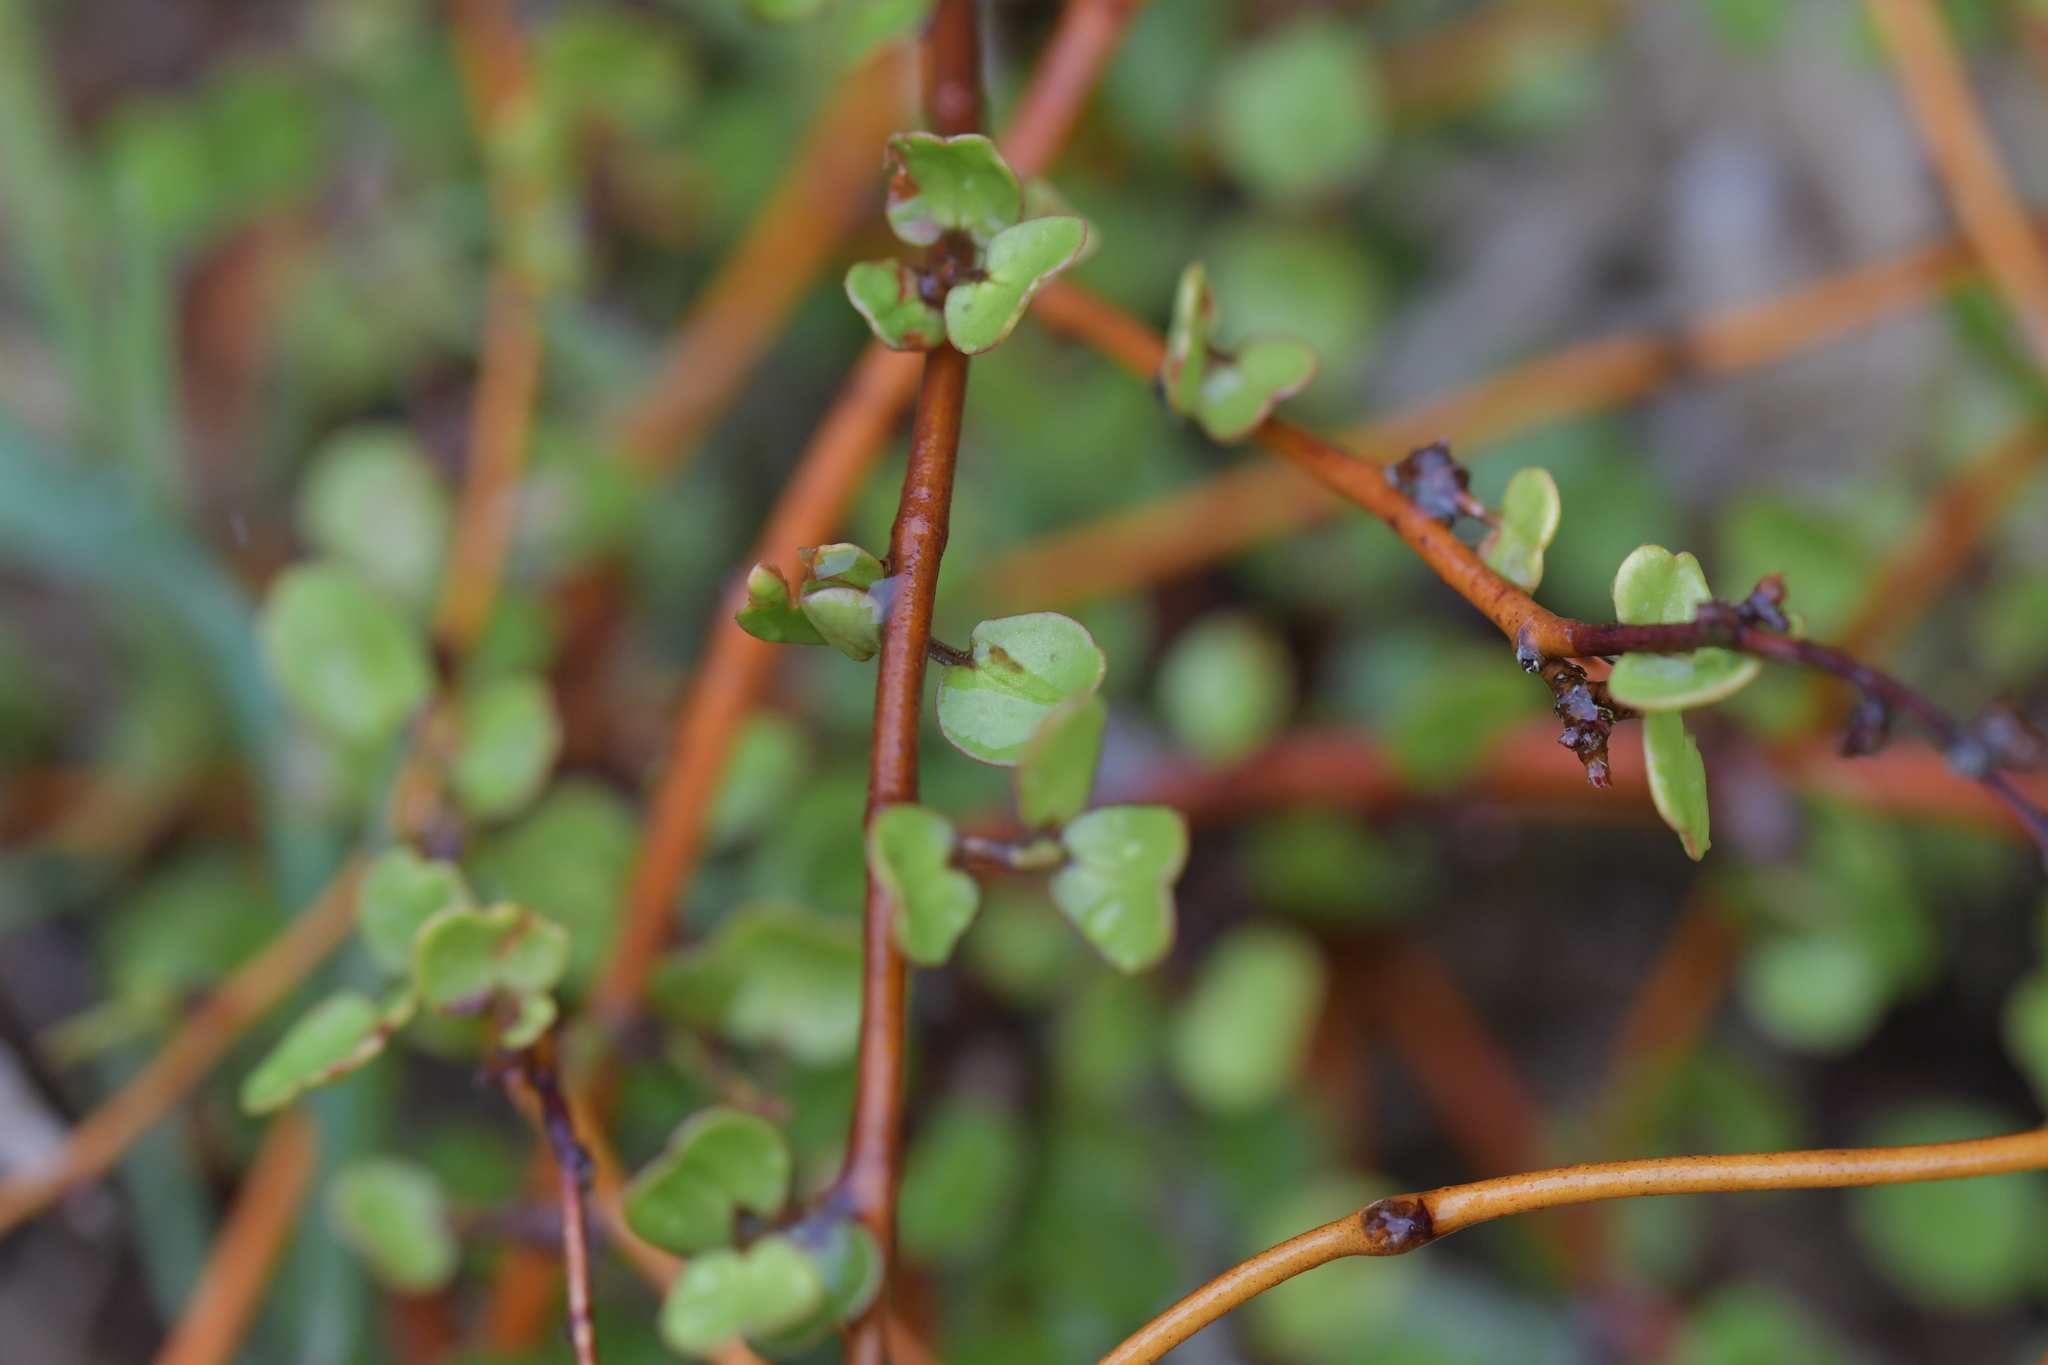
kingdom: Plantae
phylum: Tracheophyta
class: Magnoliopsida
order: Caryophyllales
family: Polygonaceae
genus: Muehlenbeckia
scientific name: Muehlenbeckia complexa
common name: Wireplant
